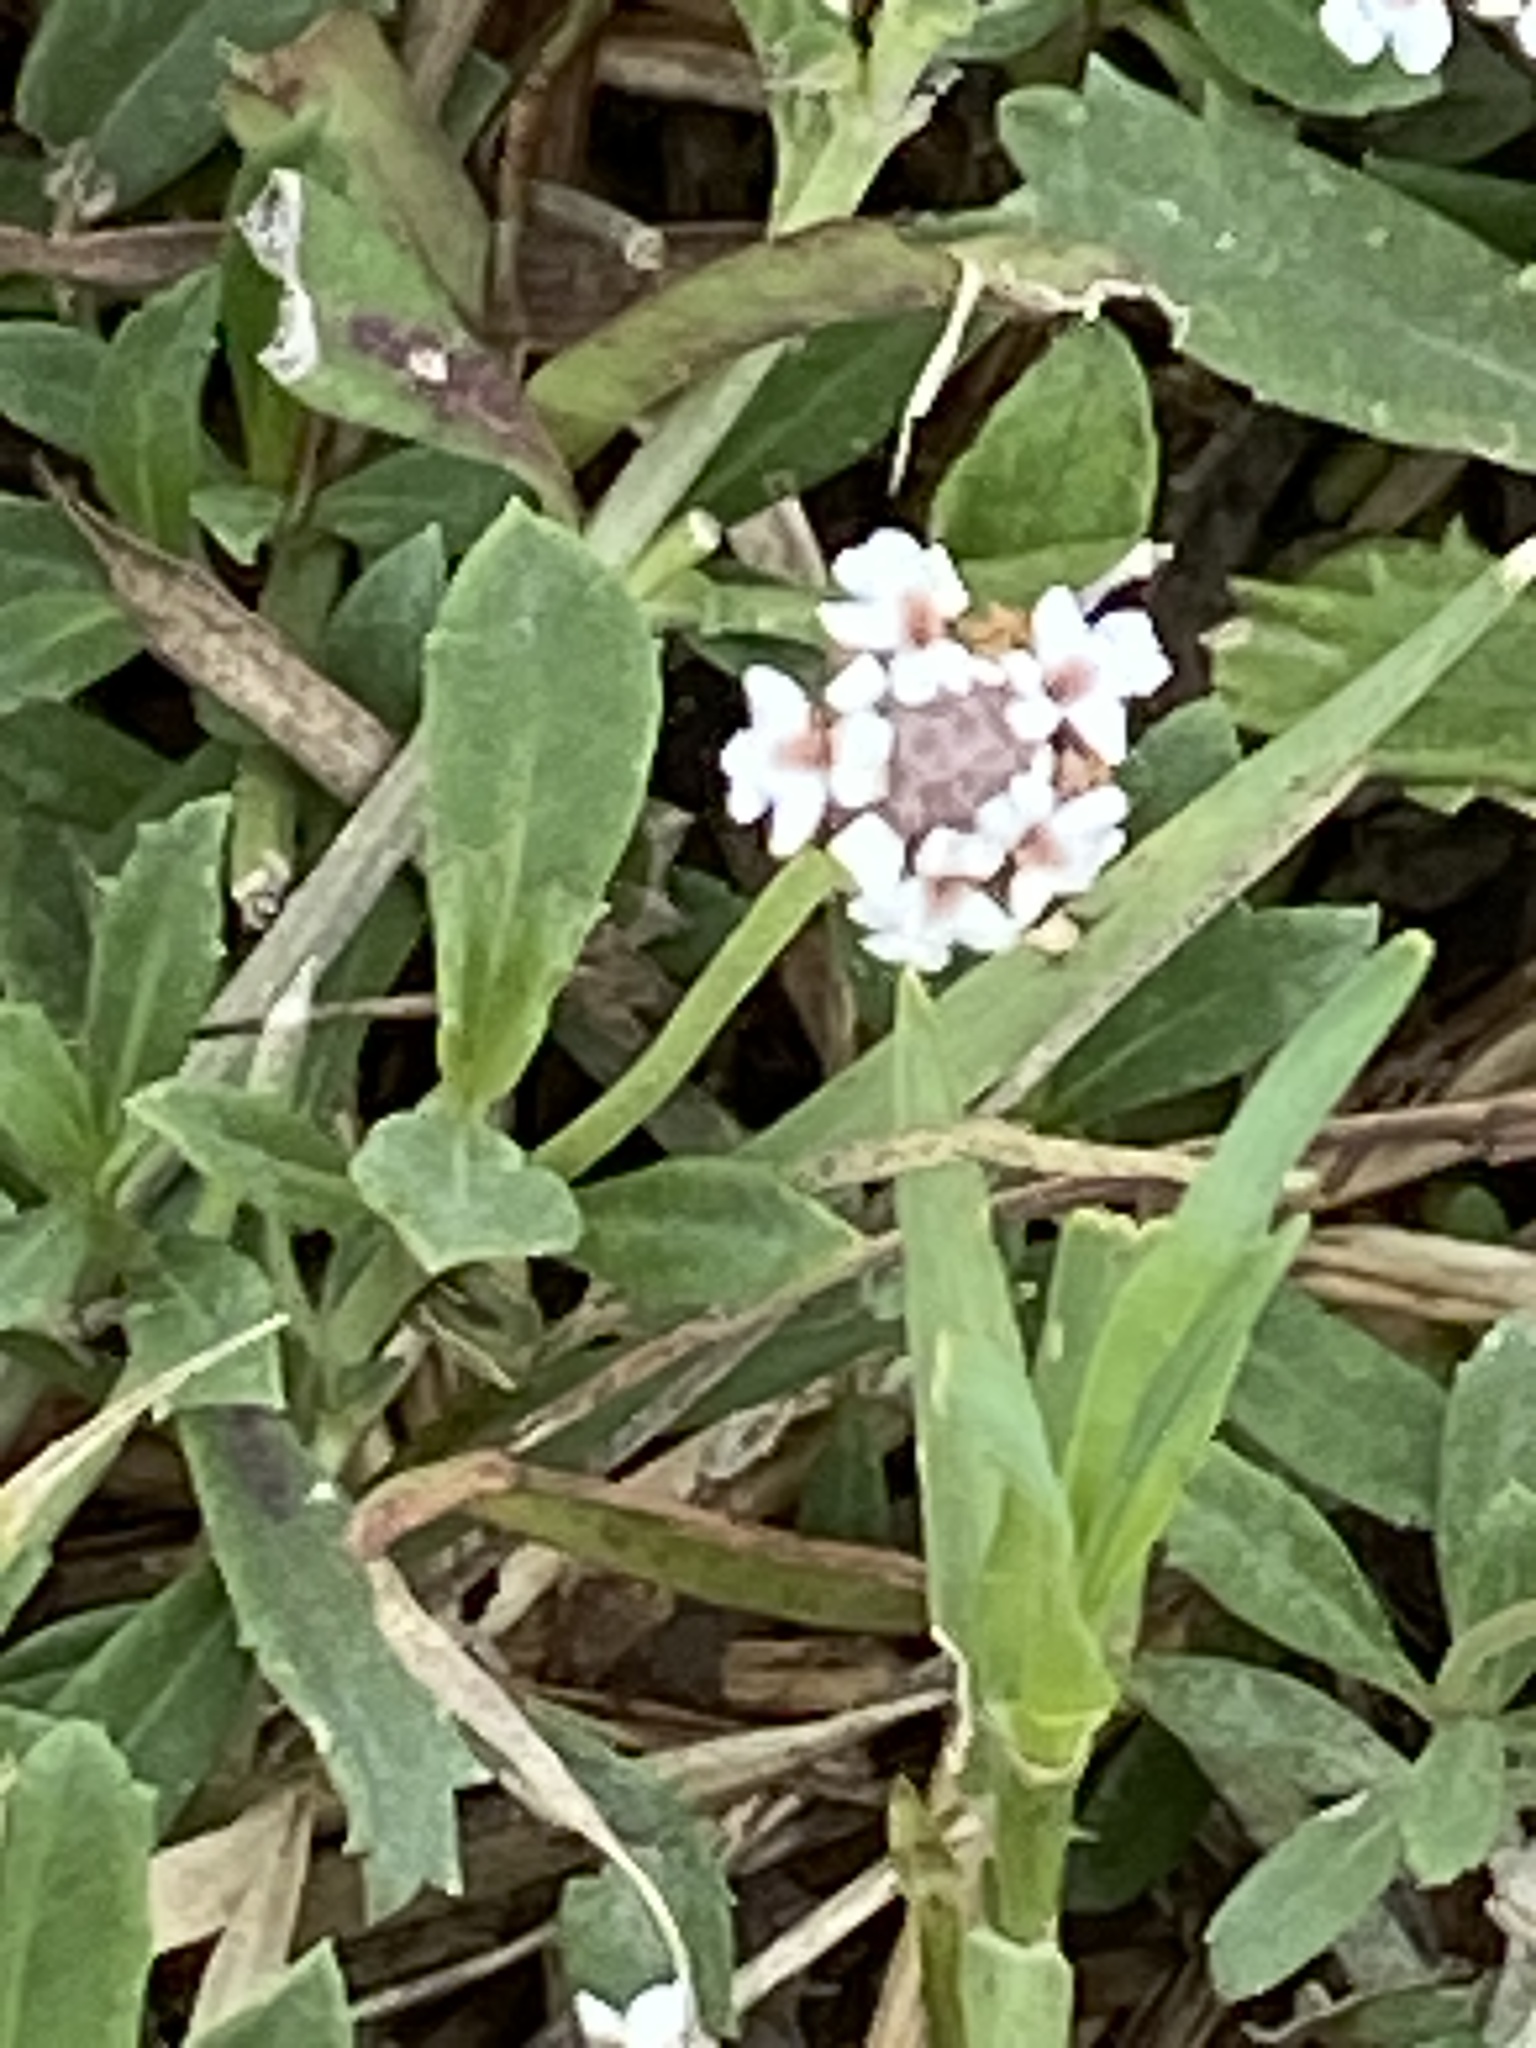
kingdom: Plantae
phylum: Tracheophyta
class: Magnoliopsida
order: Lamiales
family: Verbenaceae
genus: Phyla
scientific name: Phyla nodiflora
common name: Frogfruit
